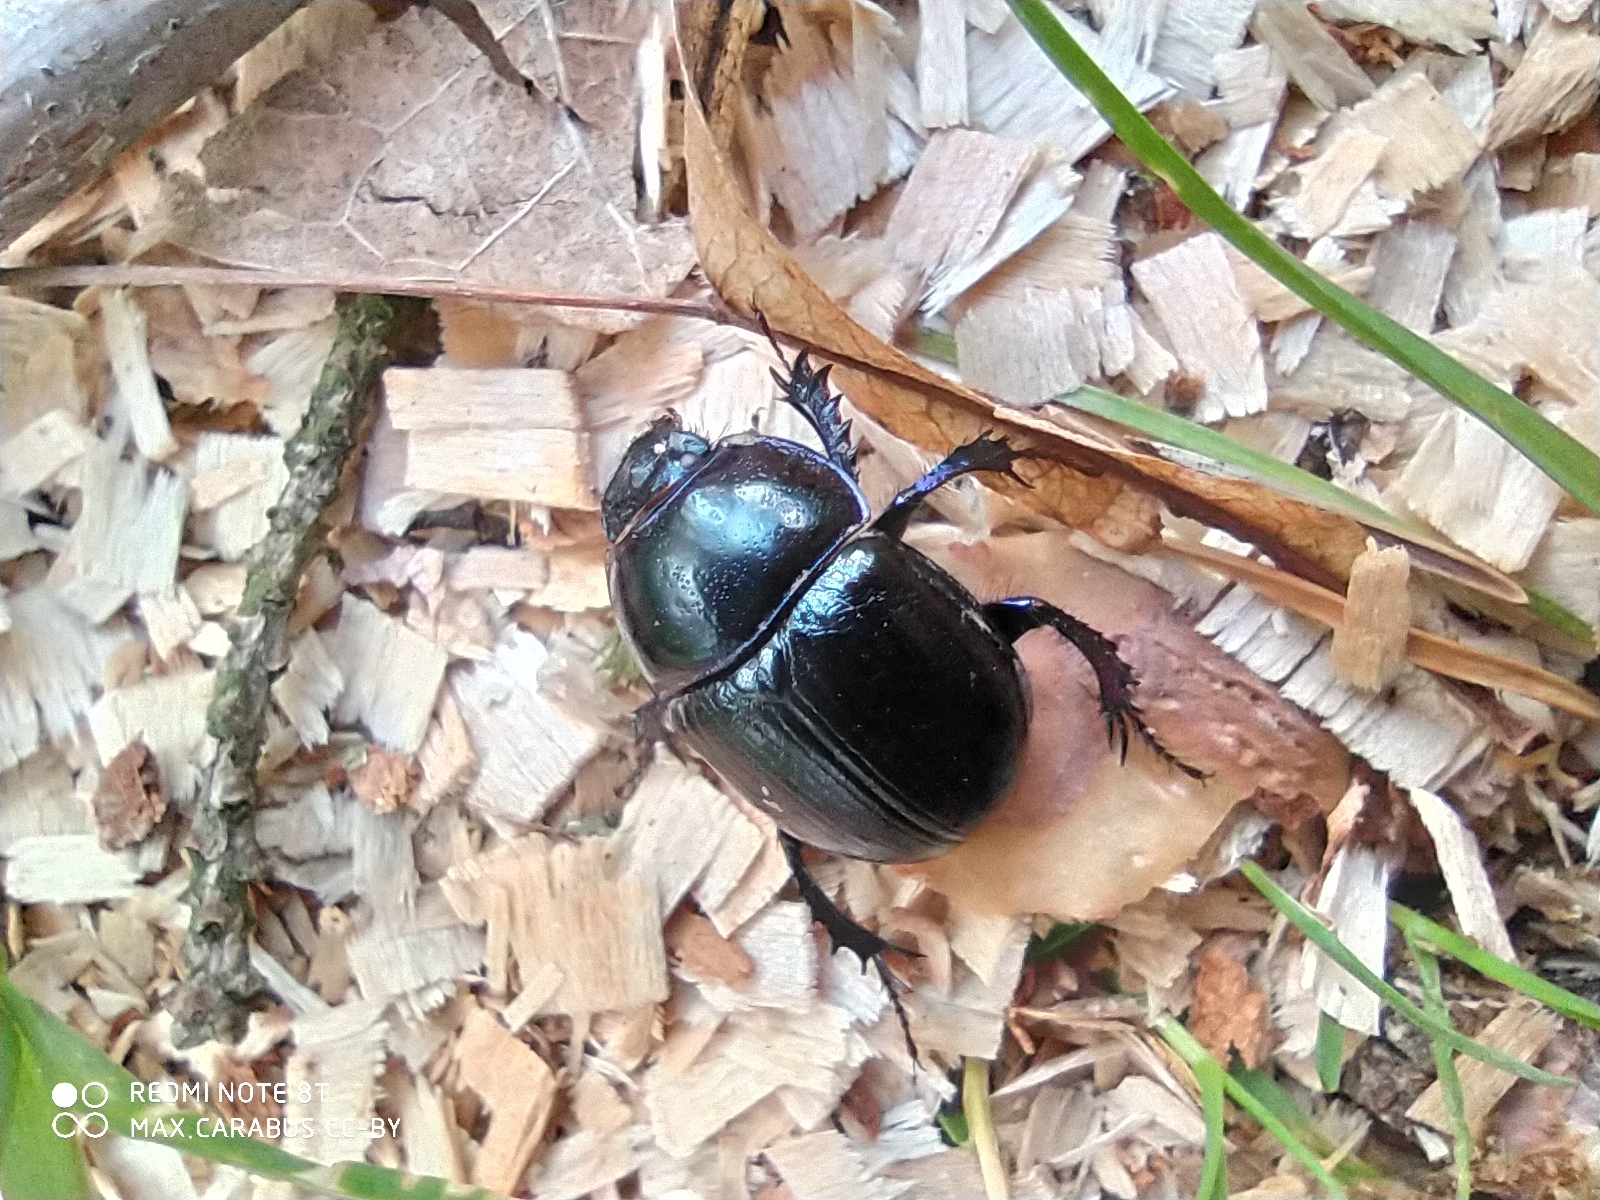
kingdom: Animalia
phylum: Arthropoda
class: Insecta
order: Coleoptera
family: Geotrupidae
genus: Anoplotrupes
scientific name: Anoplotrupes stercorosus
